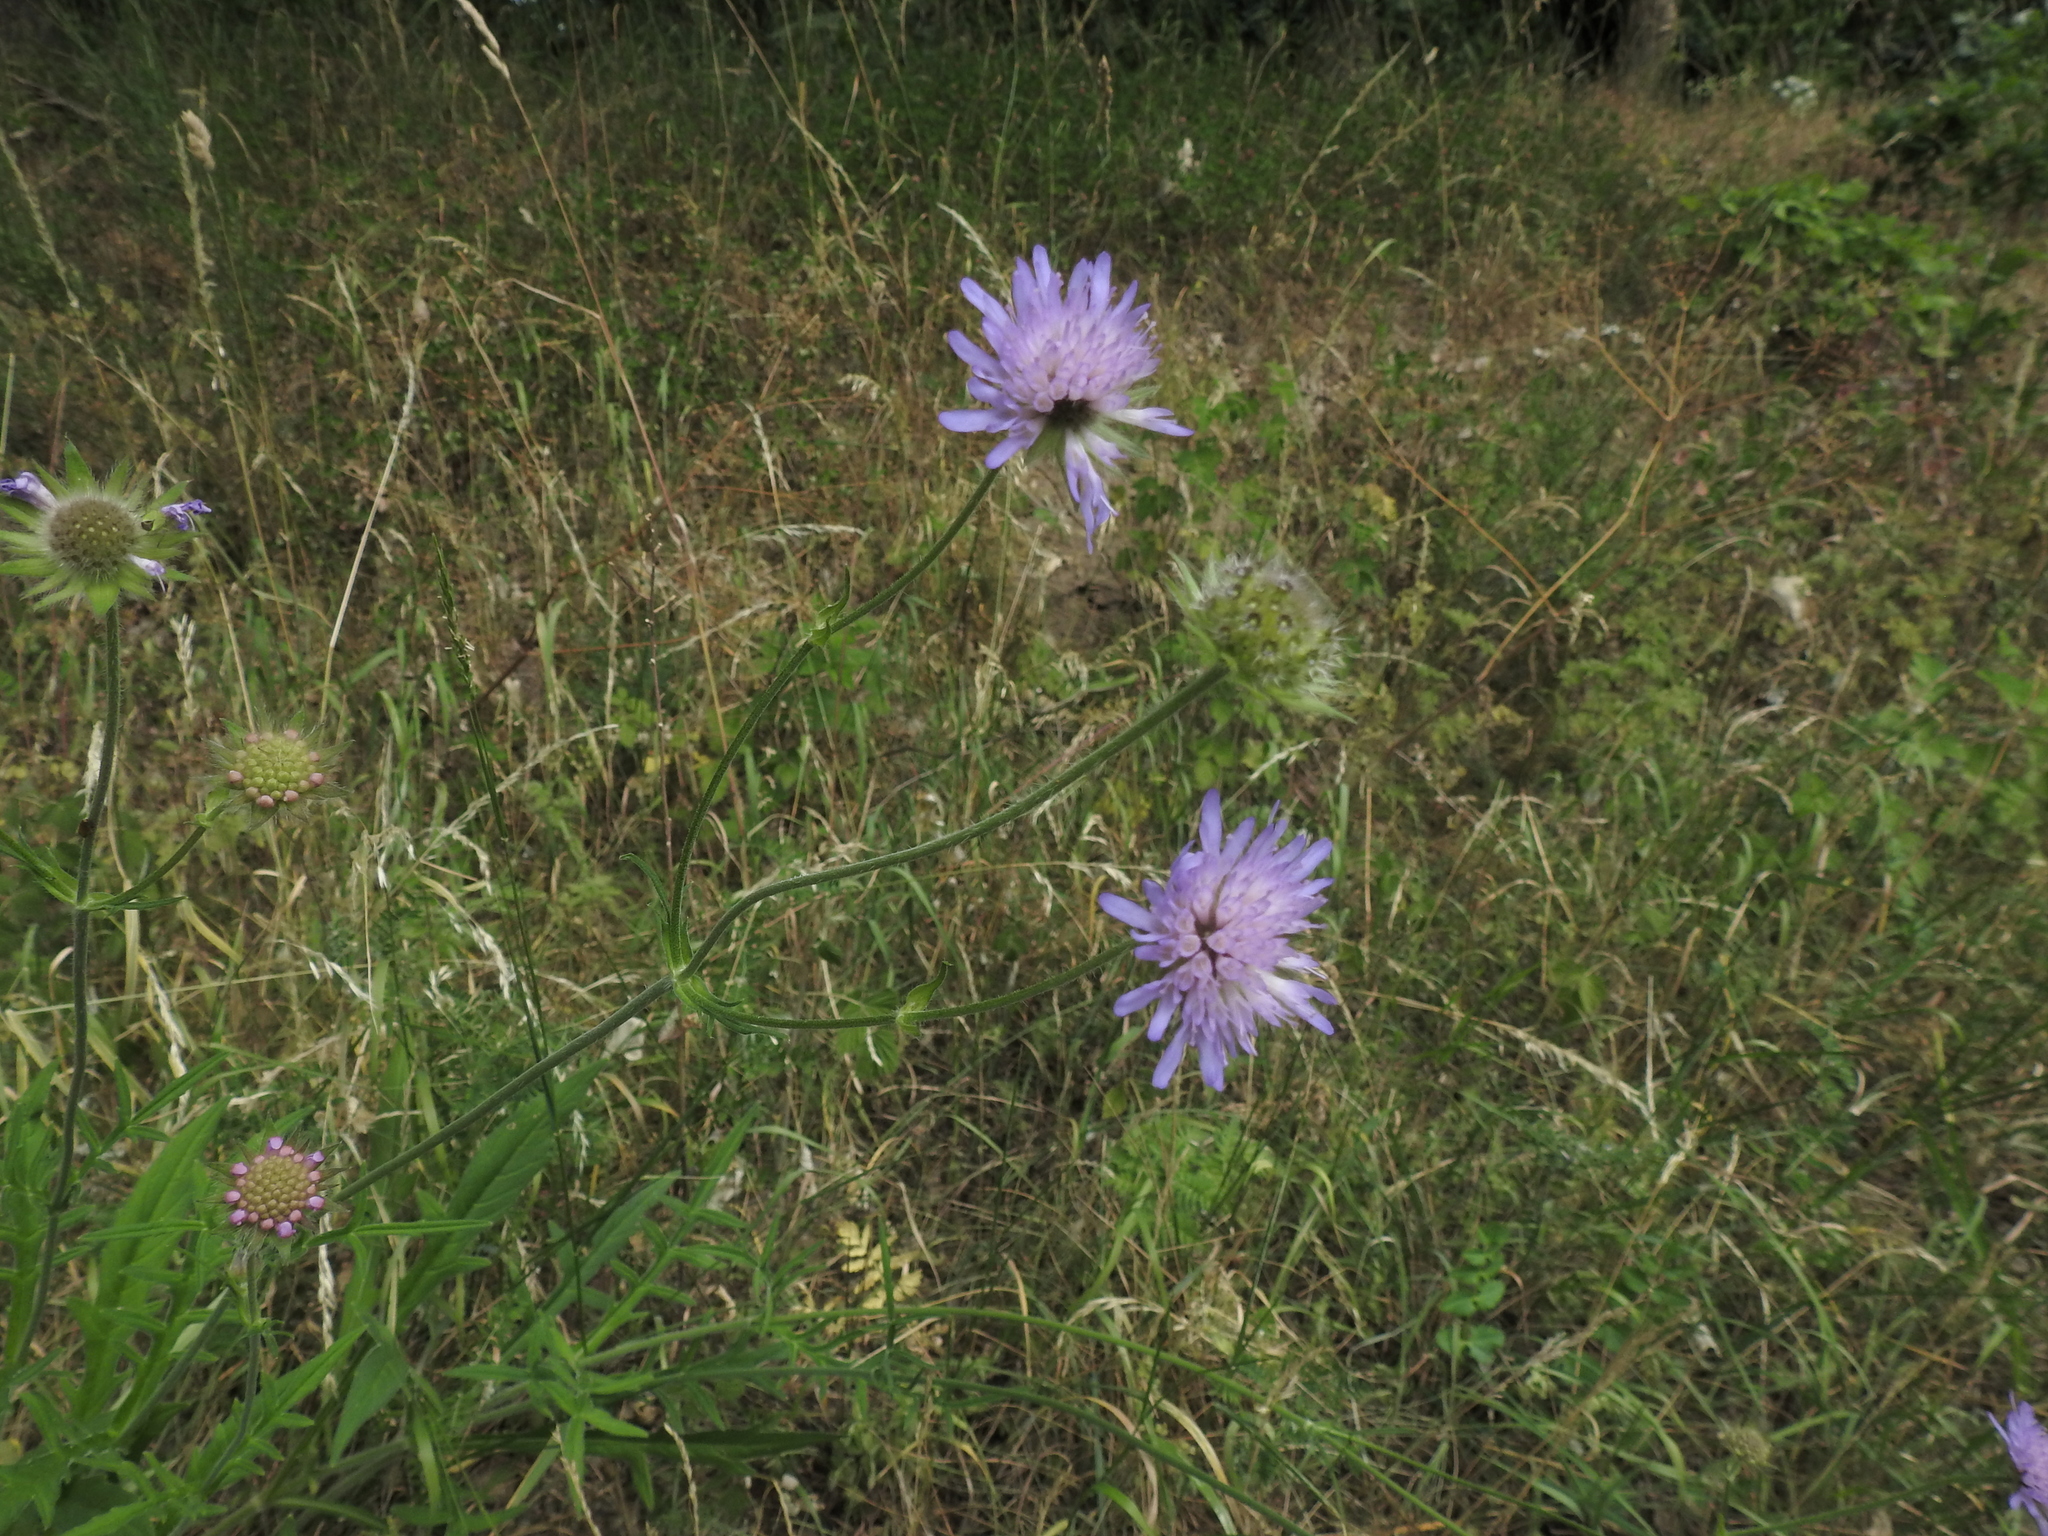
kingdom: Plantae
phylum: Tracheophyta
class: Magnoliopsida
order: Dipsacales
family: Caprifoliaceae
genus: Knautia
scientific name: Knautia arvensis
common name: Field scabiosa
